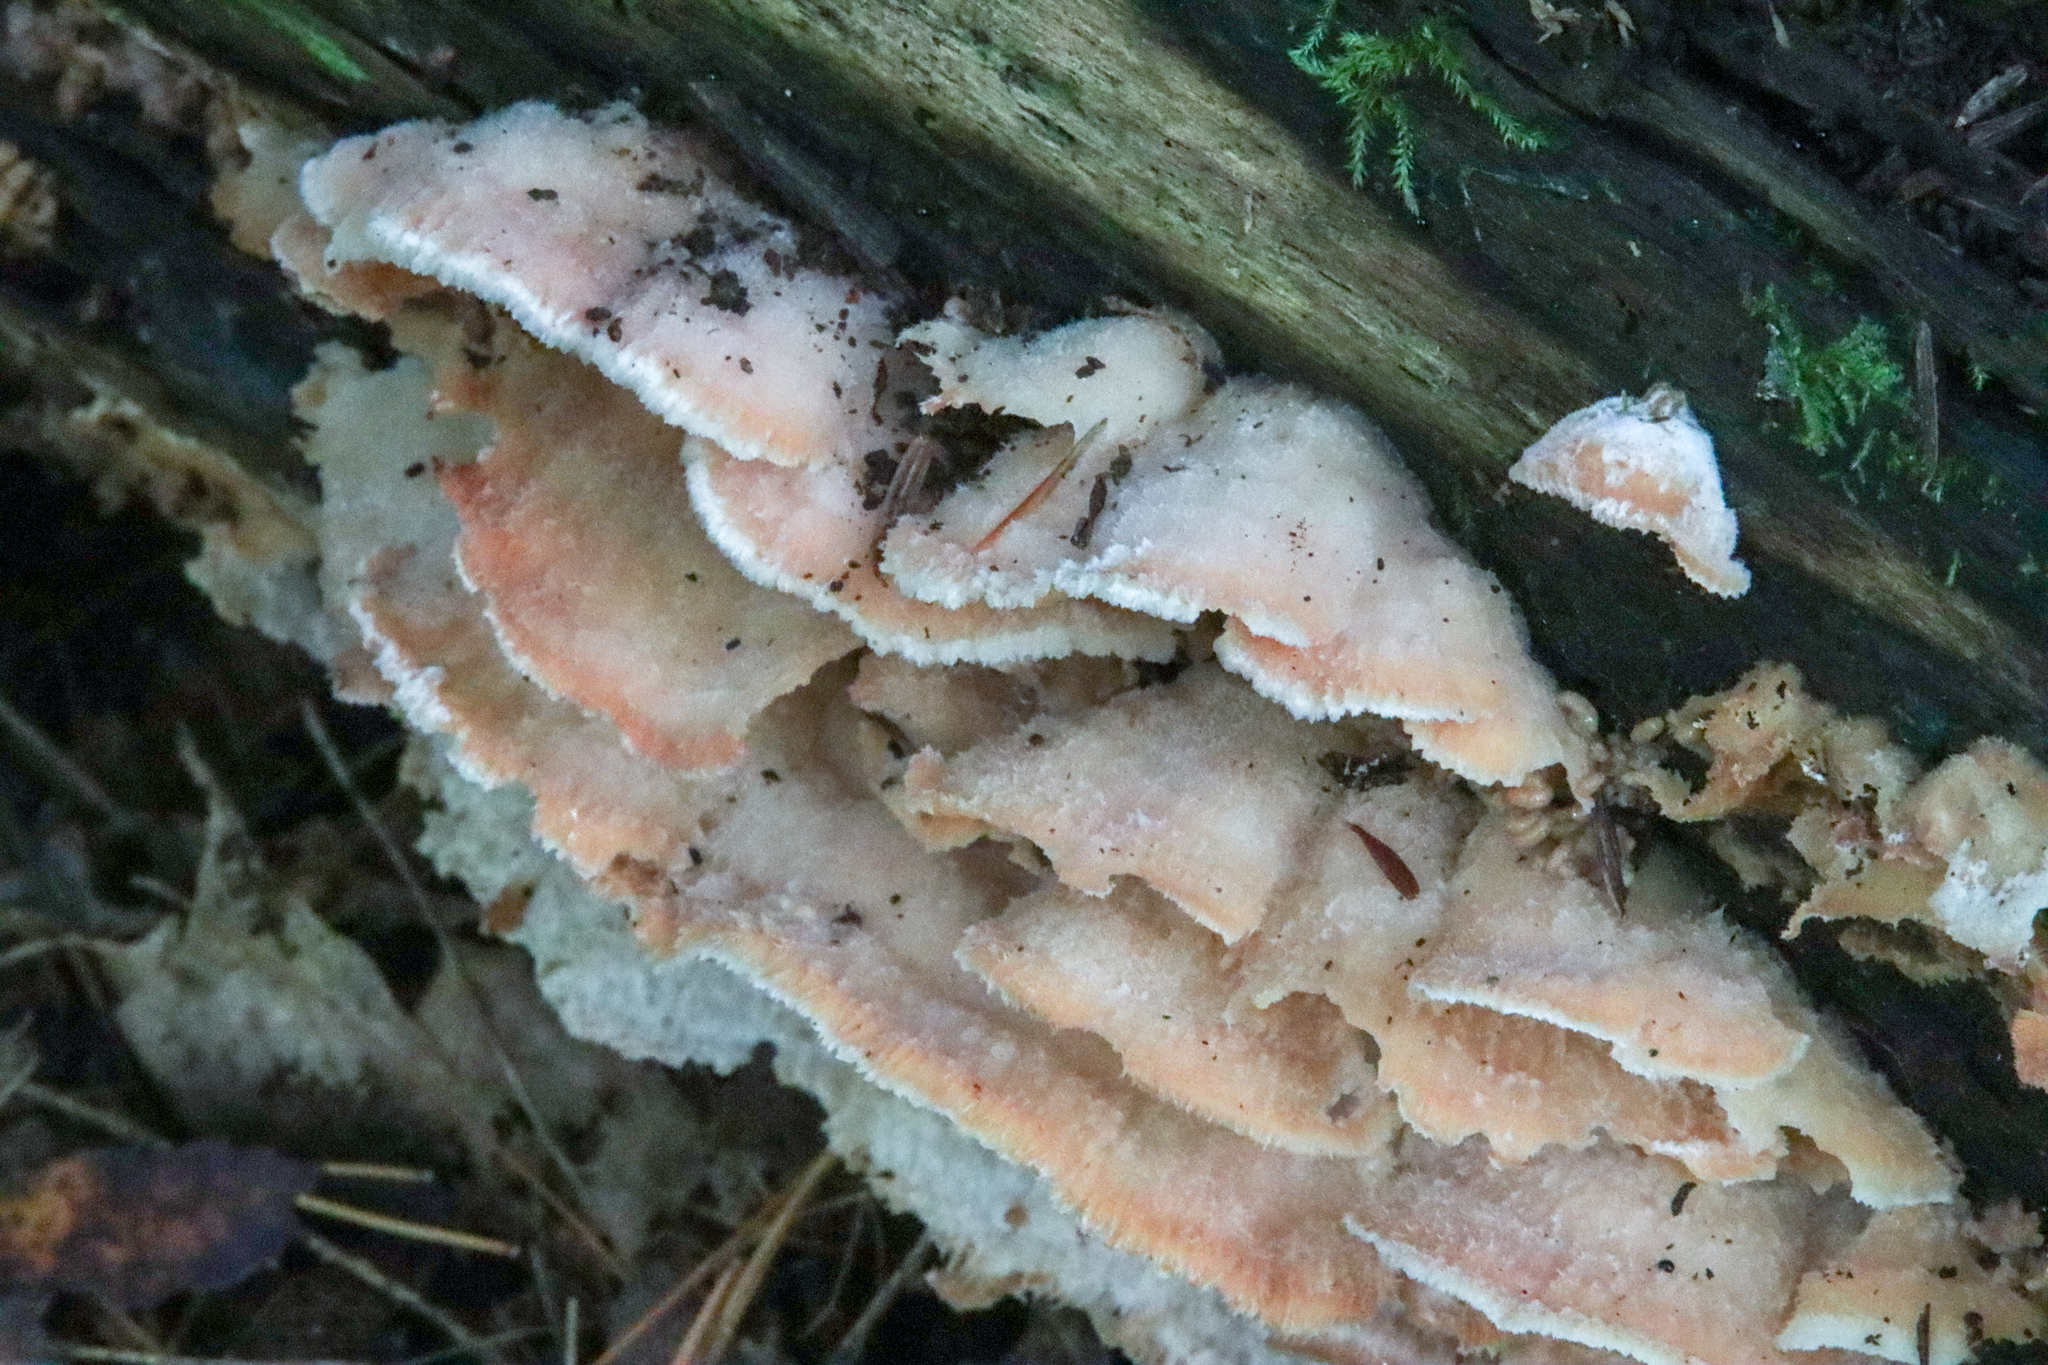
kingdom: Fungi
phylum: Basidiomycota
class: Agaricomycetes
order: Polyporales
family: Meruliaceae
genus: Phlebia
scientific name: Phlebia tremellosa
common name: Jelly rot
